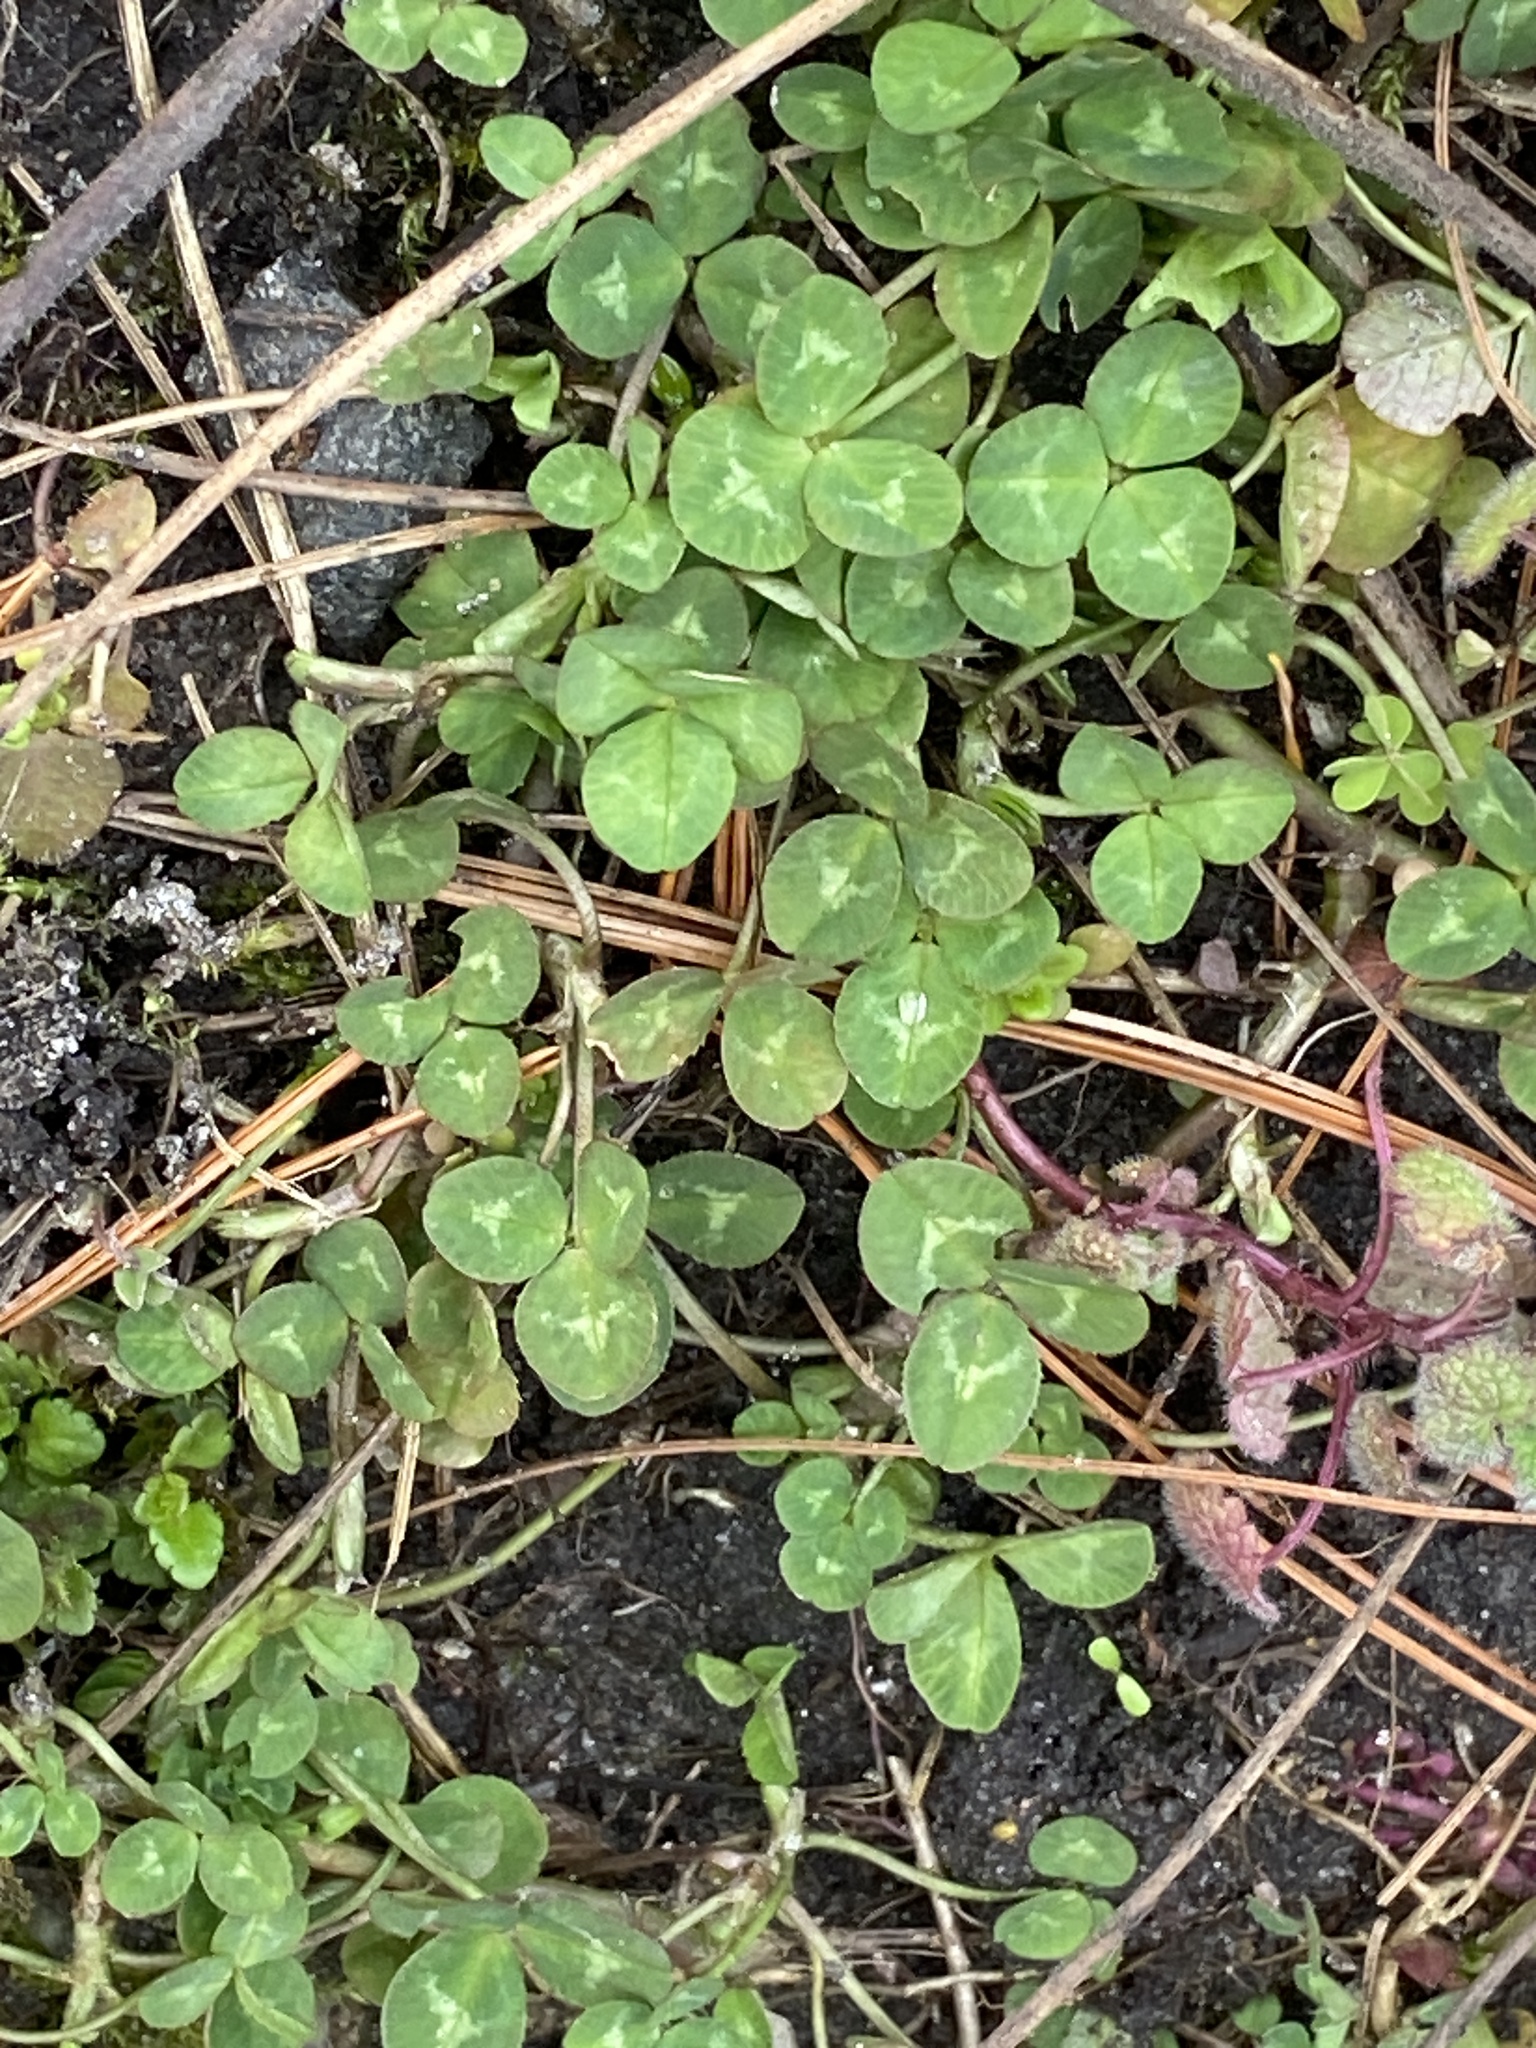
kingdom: Plantae
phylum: Tracheophyta
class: Magnoliopsida
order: Fabales
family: Fabaceae
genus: Trifolium
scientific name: Trifolium repens
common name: White clover
